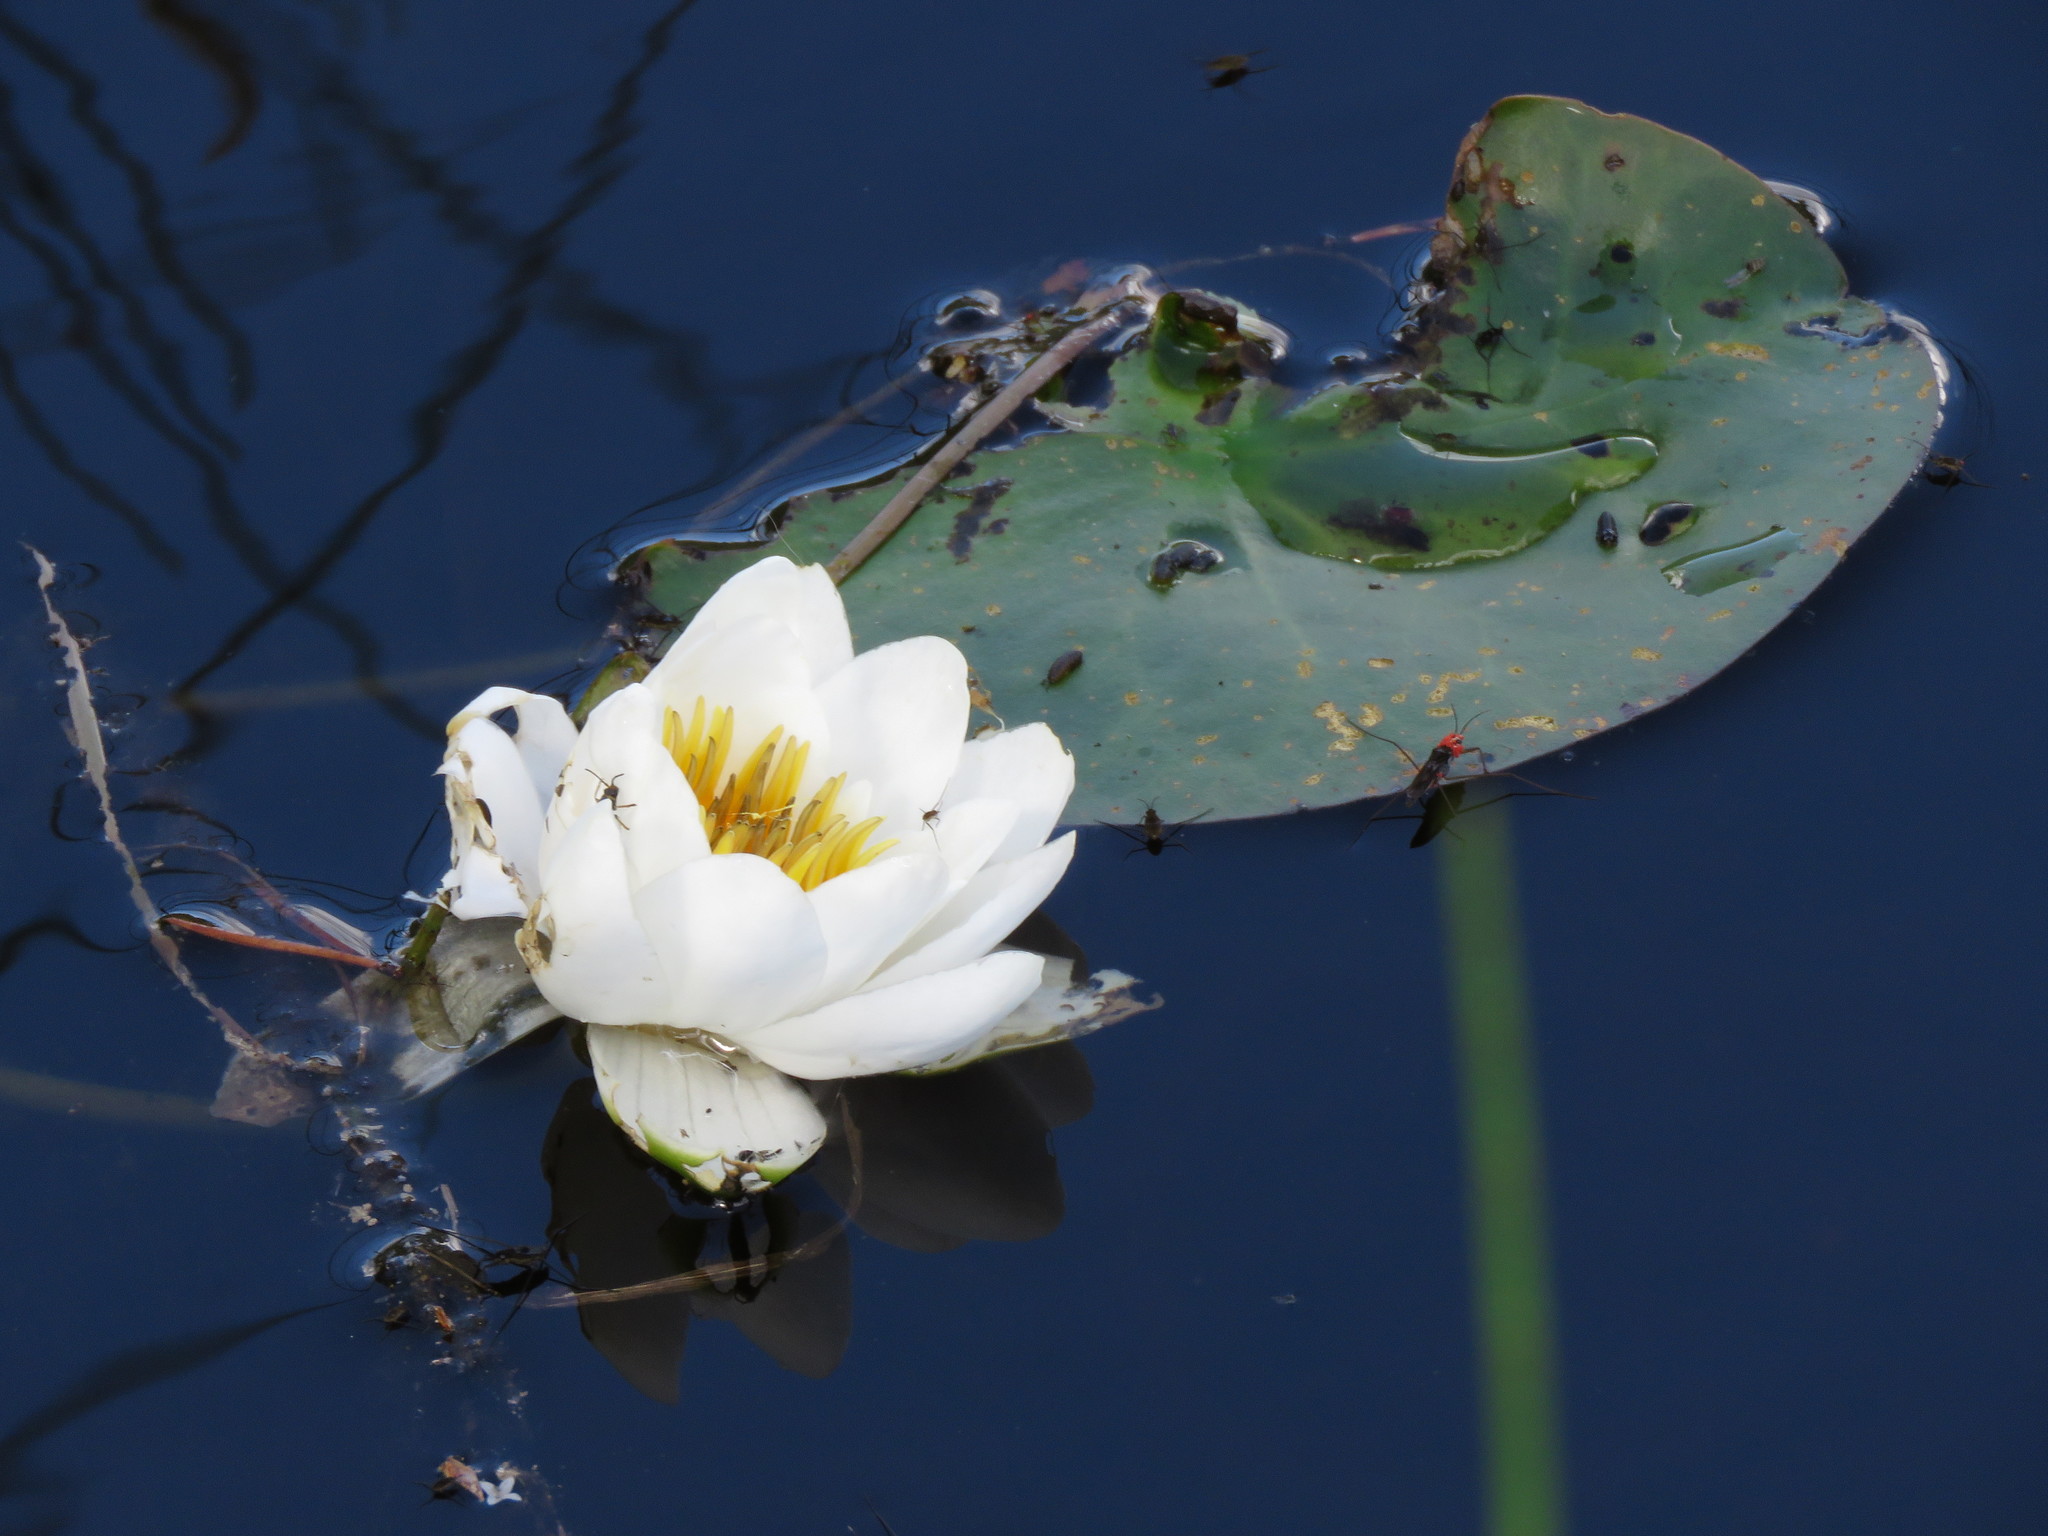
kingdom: Plantae
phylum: Tracheophyta
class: Magnoliopsida
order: Nymphaeales
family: Nymphaeaceae
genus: Nymphaea
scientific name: Nymphaea alba
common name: White water-lily
